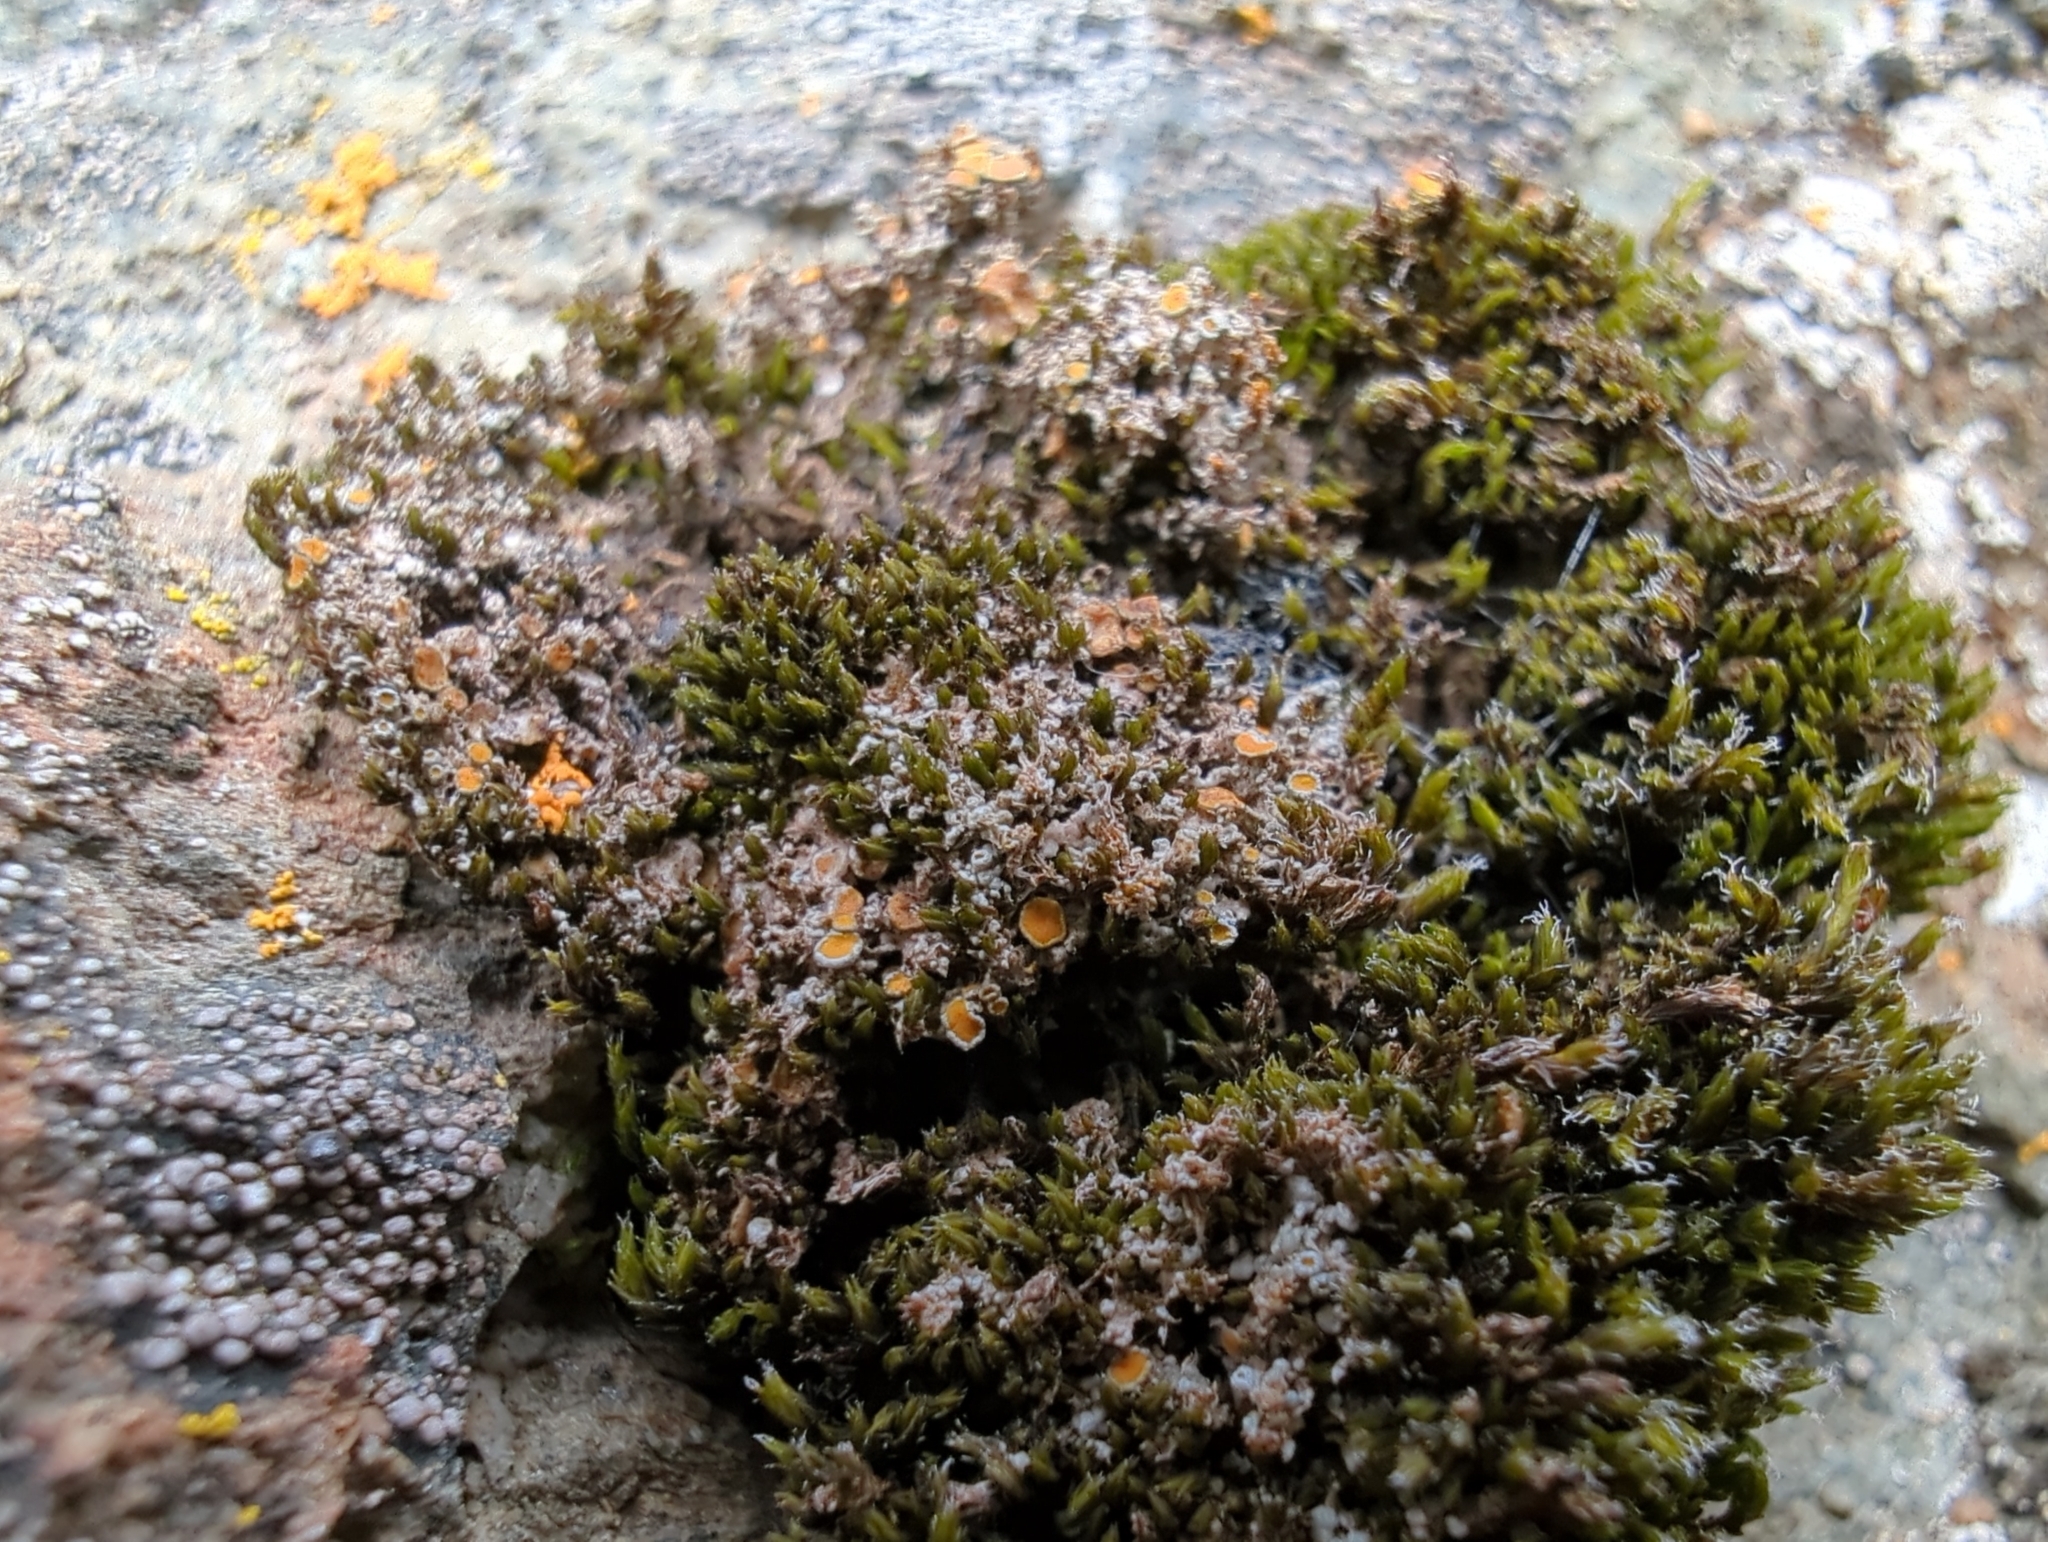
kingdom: Fungi
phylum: Ascomycota
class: Lecanoromycetes
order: Teloschistales
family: Teloschistaceae
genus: Caloplaca
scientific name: Caloplaca cerina
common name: Gray-rimmed firedot lichen
